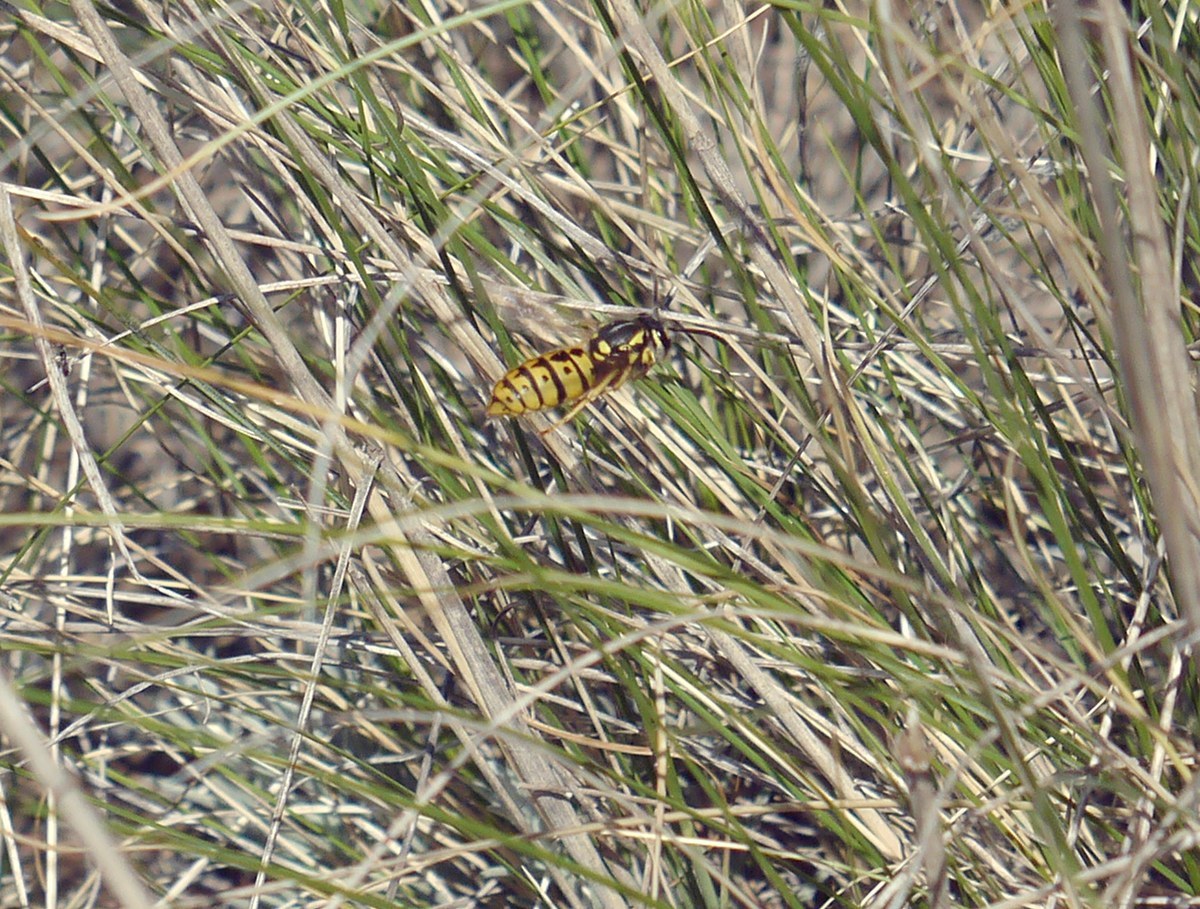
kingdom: Animalia
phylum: Arthropoda
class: Insecta
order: Hymenoptera
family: Vespidae
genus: Vespula
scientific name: Vespula germanica
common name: German wasp
